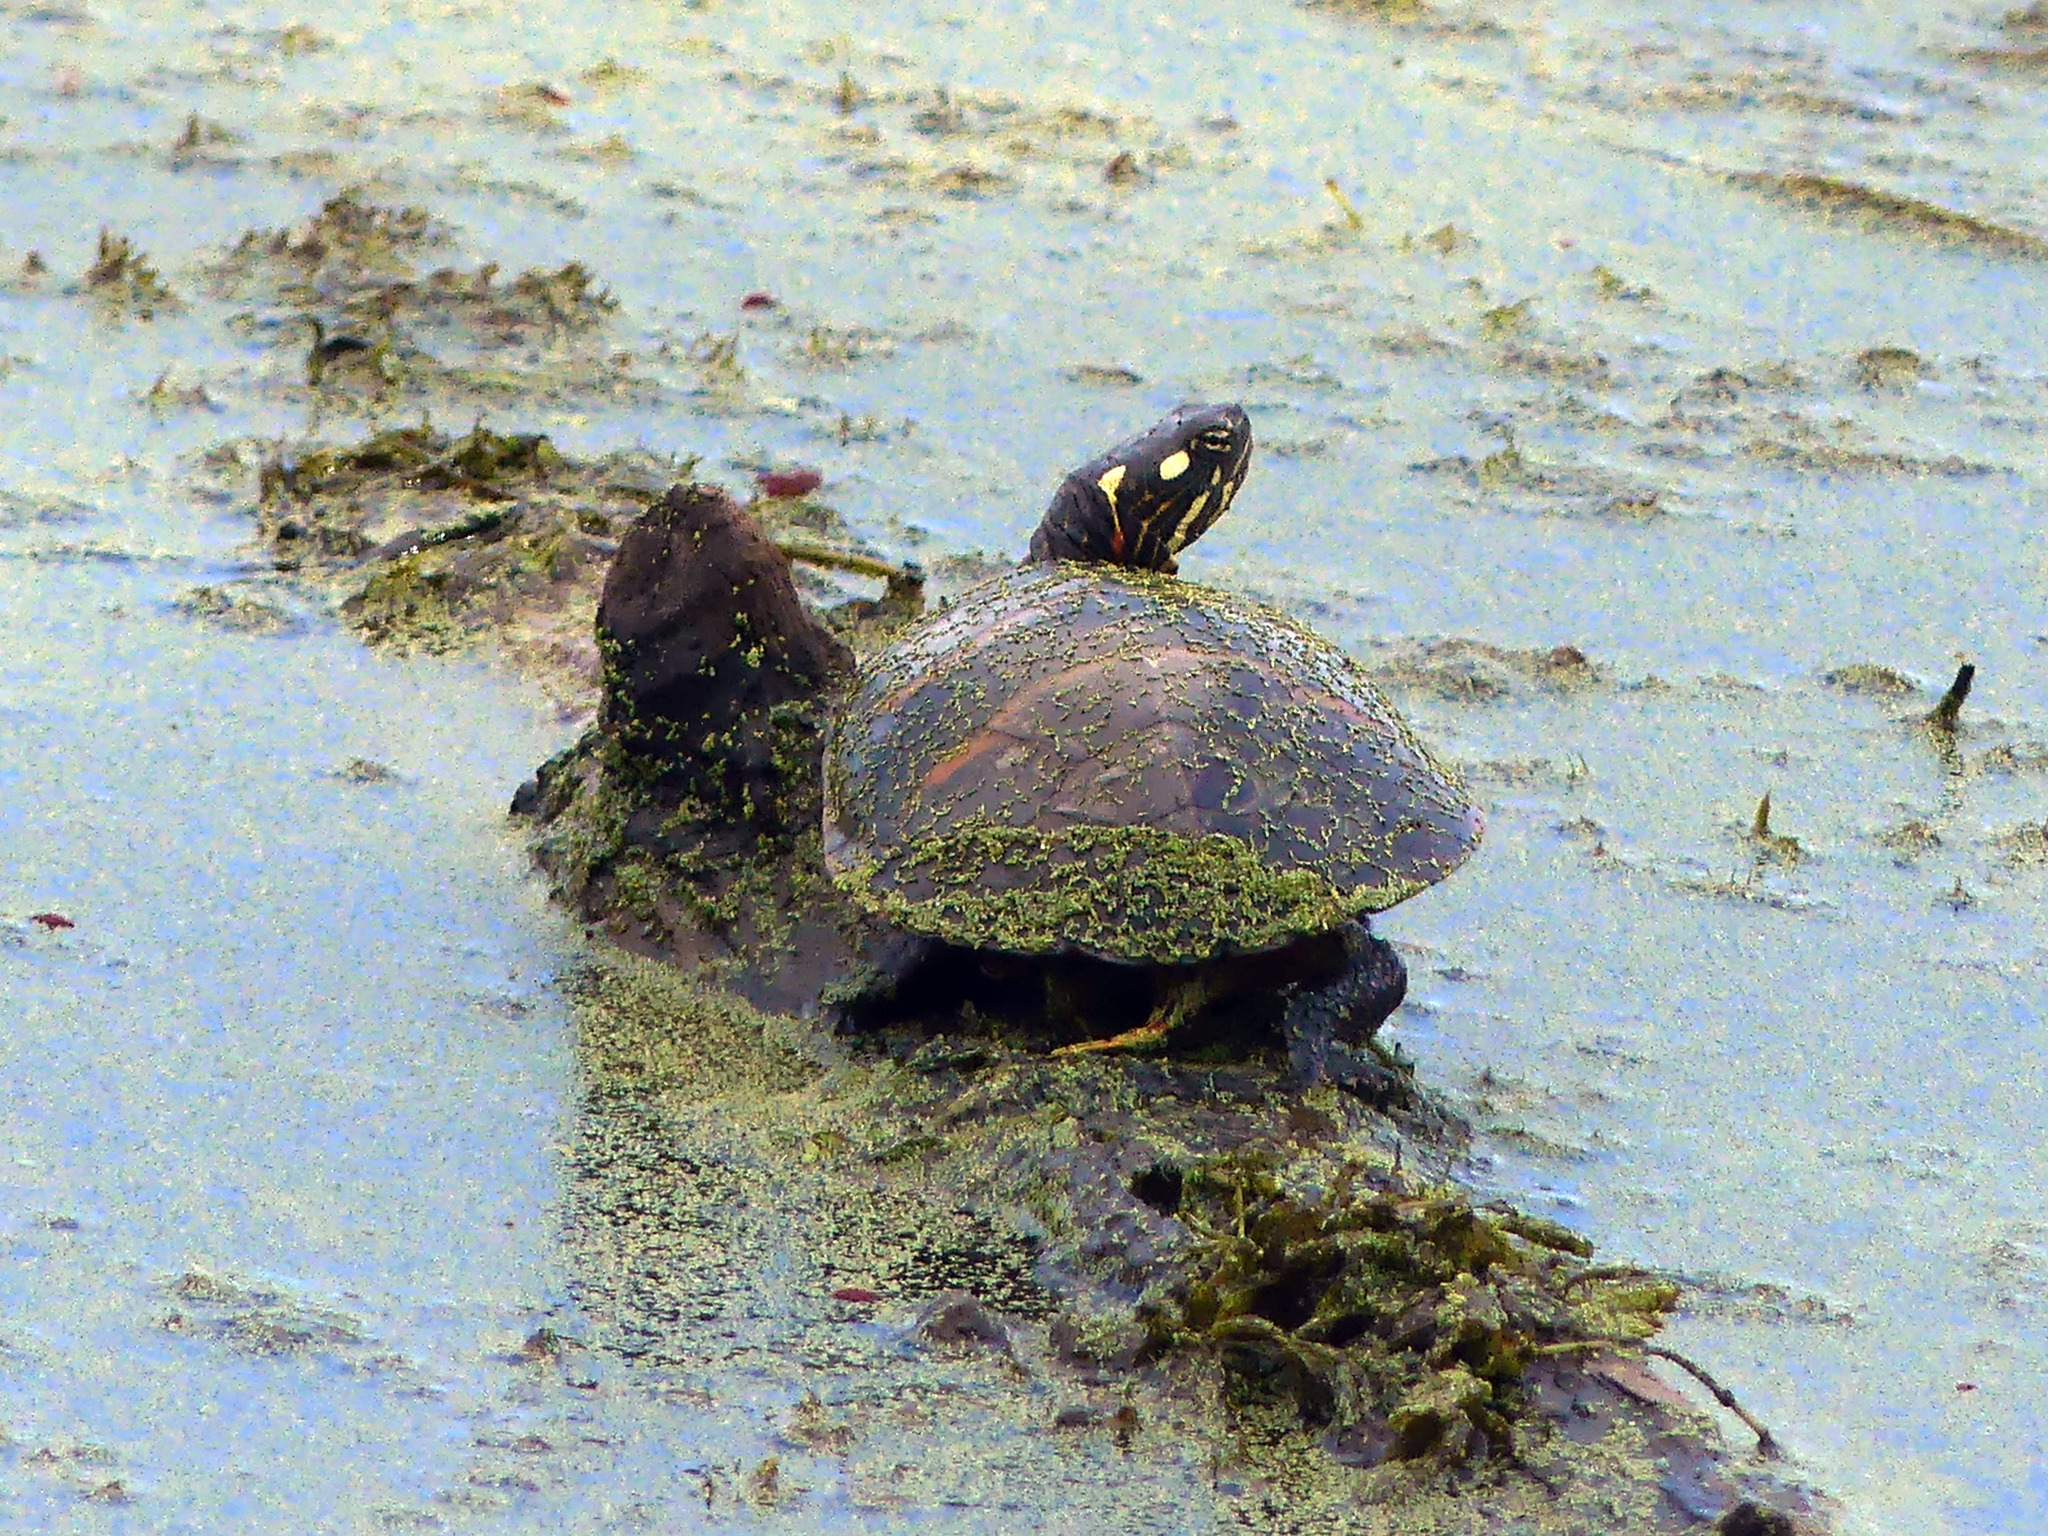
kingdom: Animalia
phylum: Chordata
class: Testudines
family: Emydidae
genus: Chrysemys
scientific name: Chrysemys picta
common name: Painted turtle
